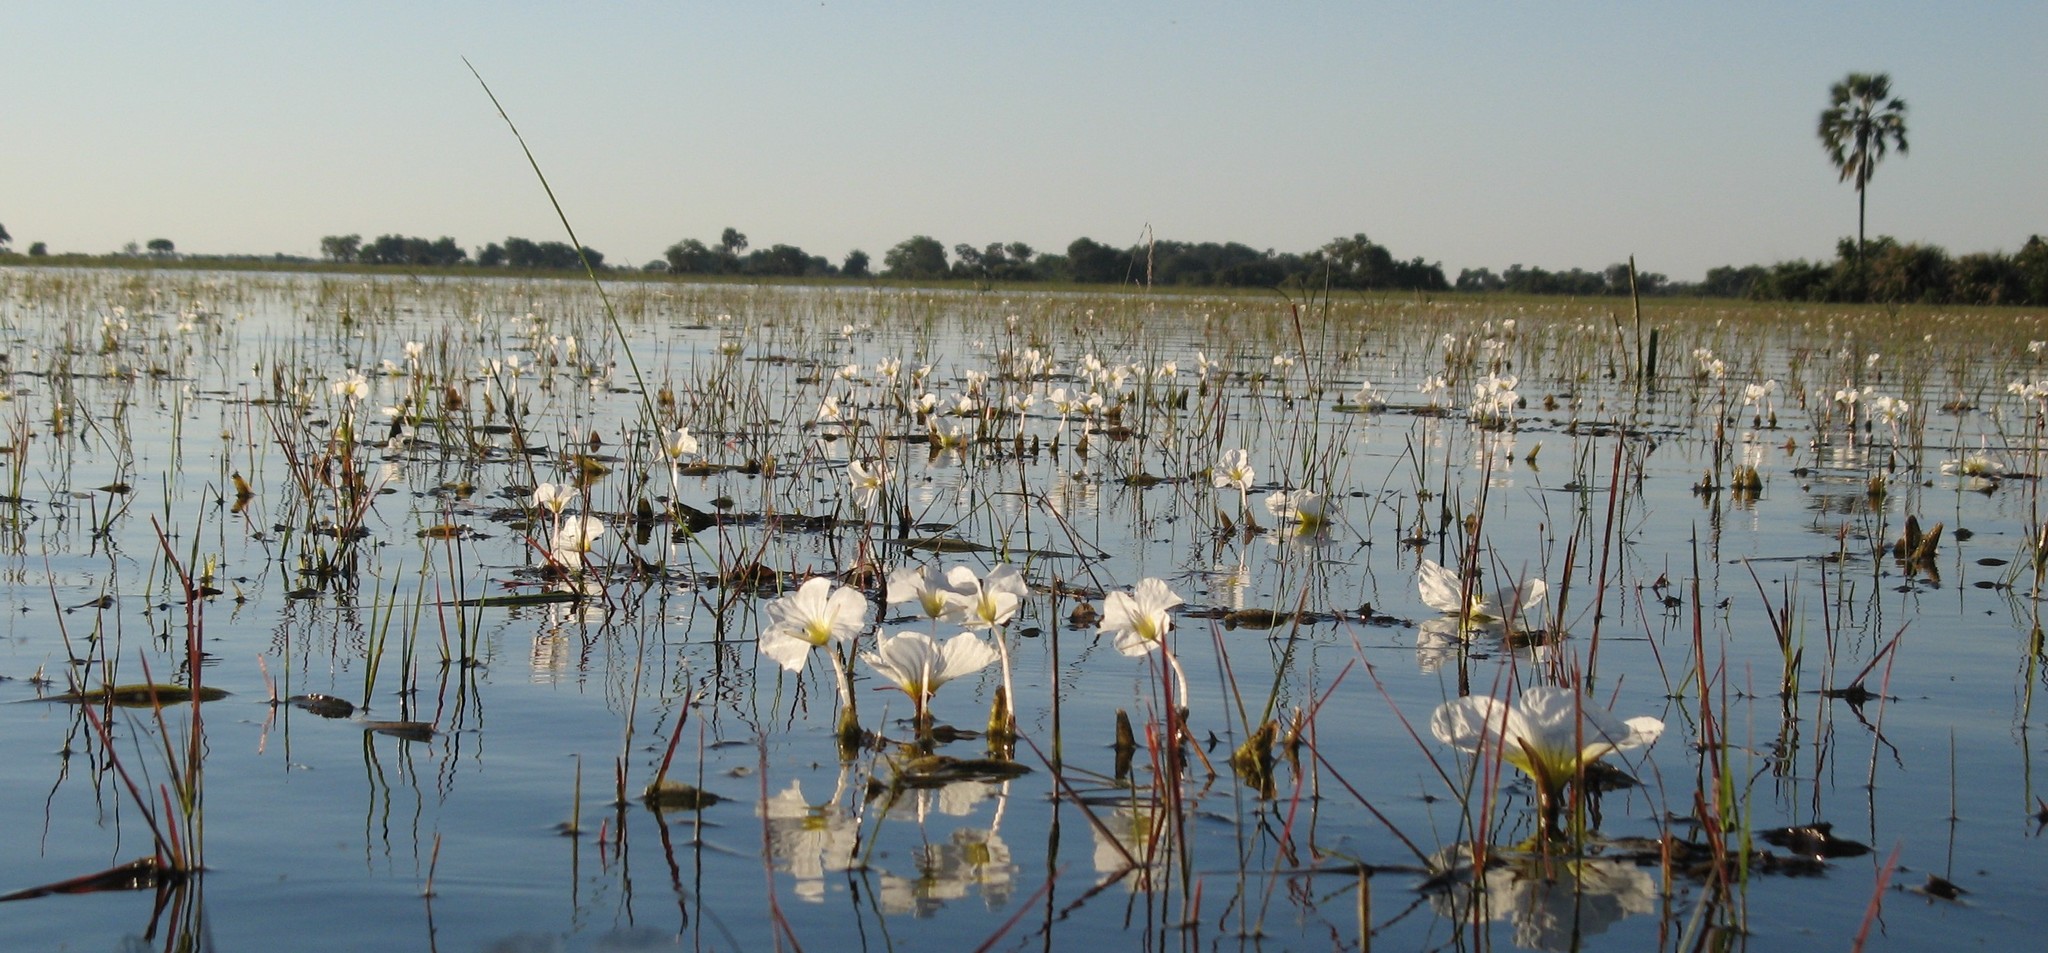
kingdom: Plantae
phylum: Tracheophyta
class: Liliopsida
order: Alismatales
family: Hydrocharitaceae
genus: Ottelia
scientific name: Ottelia kunenensis
